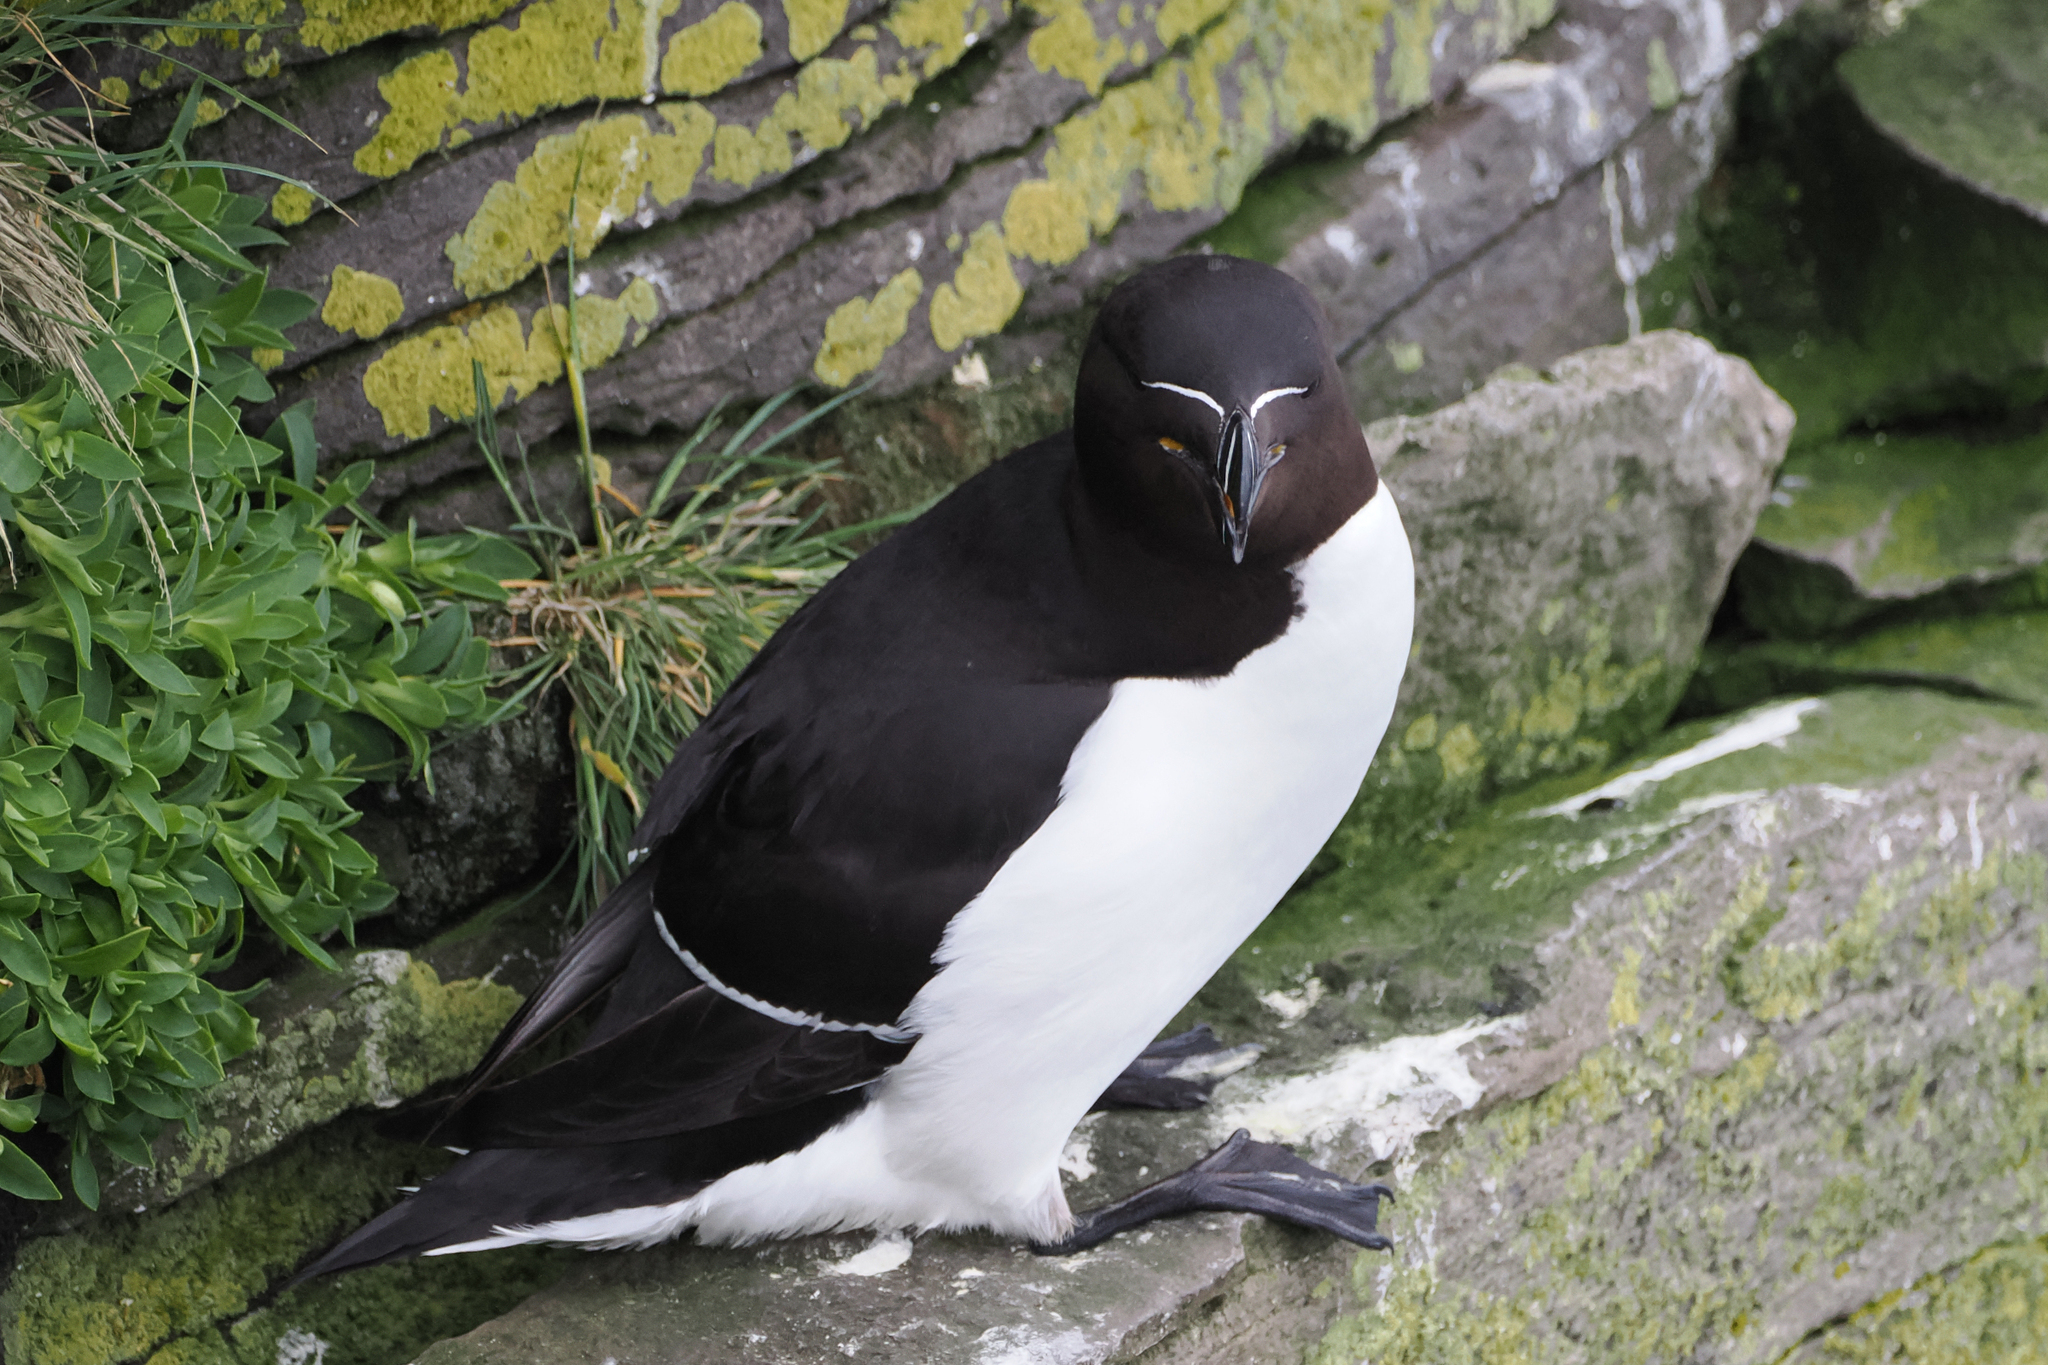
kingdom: Animalia
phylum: Chordata
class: Aves
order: Charadriiformes
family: Alcidae
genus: Alca
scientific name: Alca torda
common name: Razorbill
